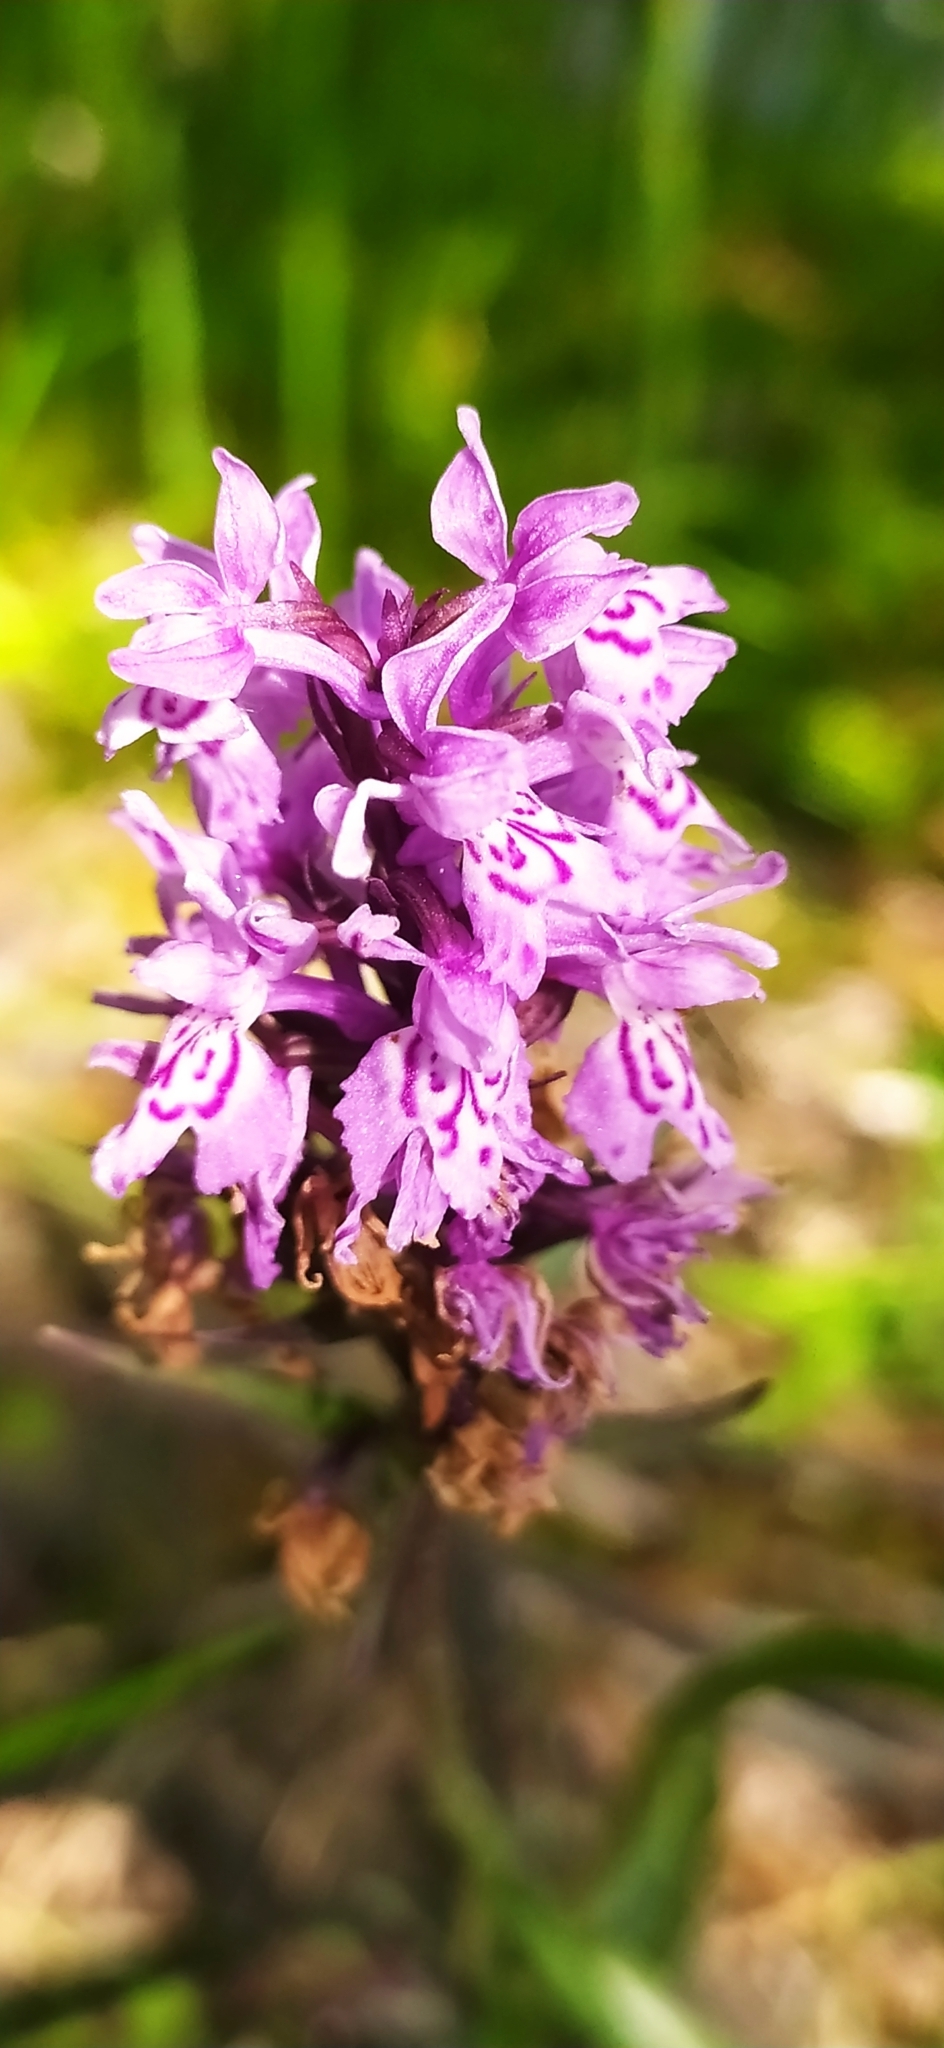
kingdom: Plantae
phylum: Tracheophyta
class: Liliopsida
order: Asparagales
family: Orchidaceae
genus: Dactylorhiza
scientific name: Dactylorhiza maculata
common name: Heath spotted-orchid
